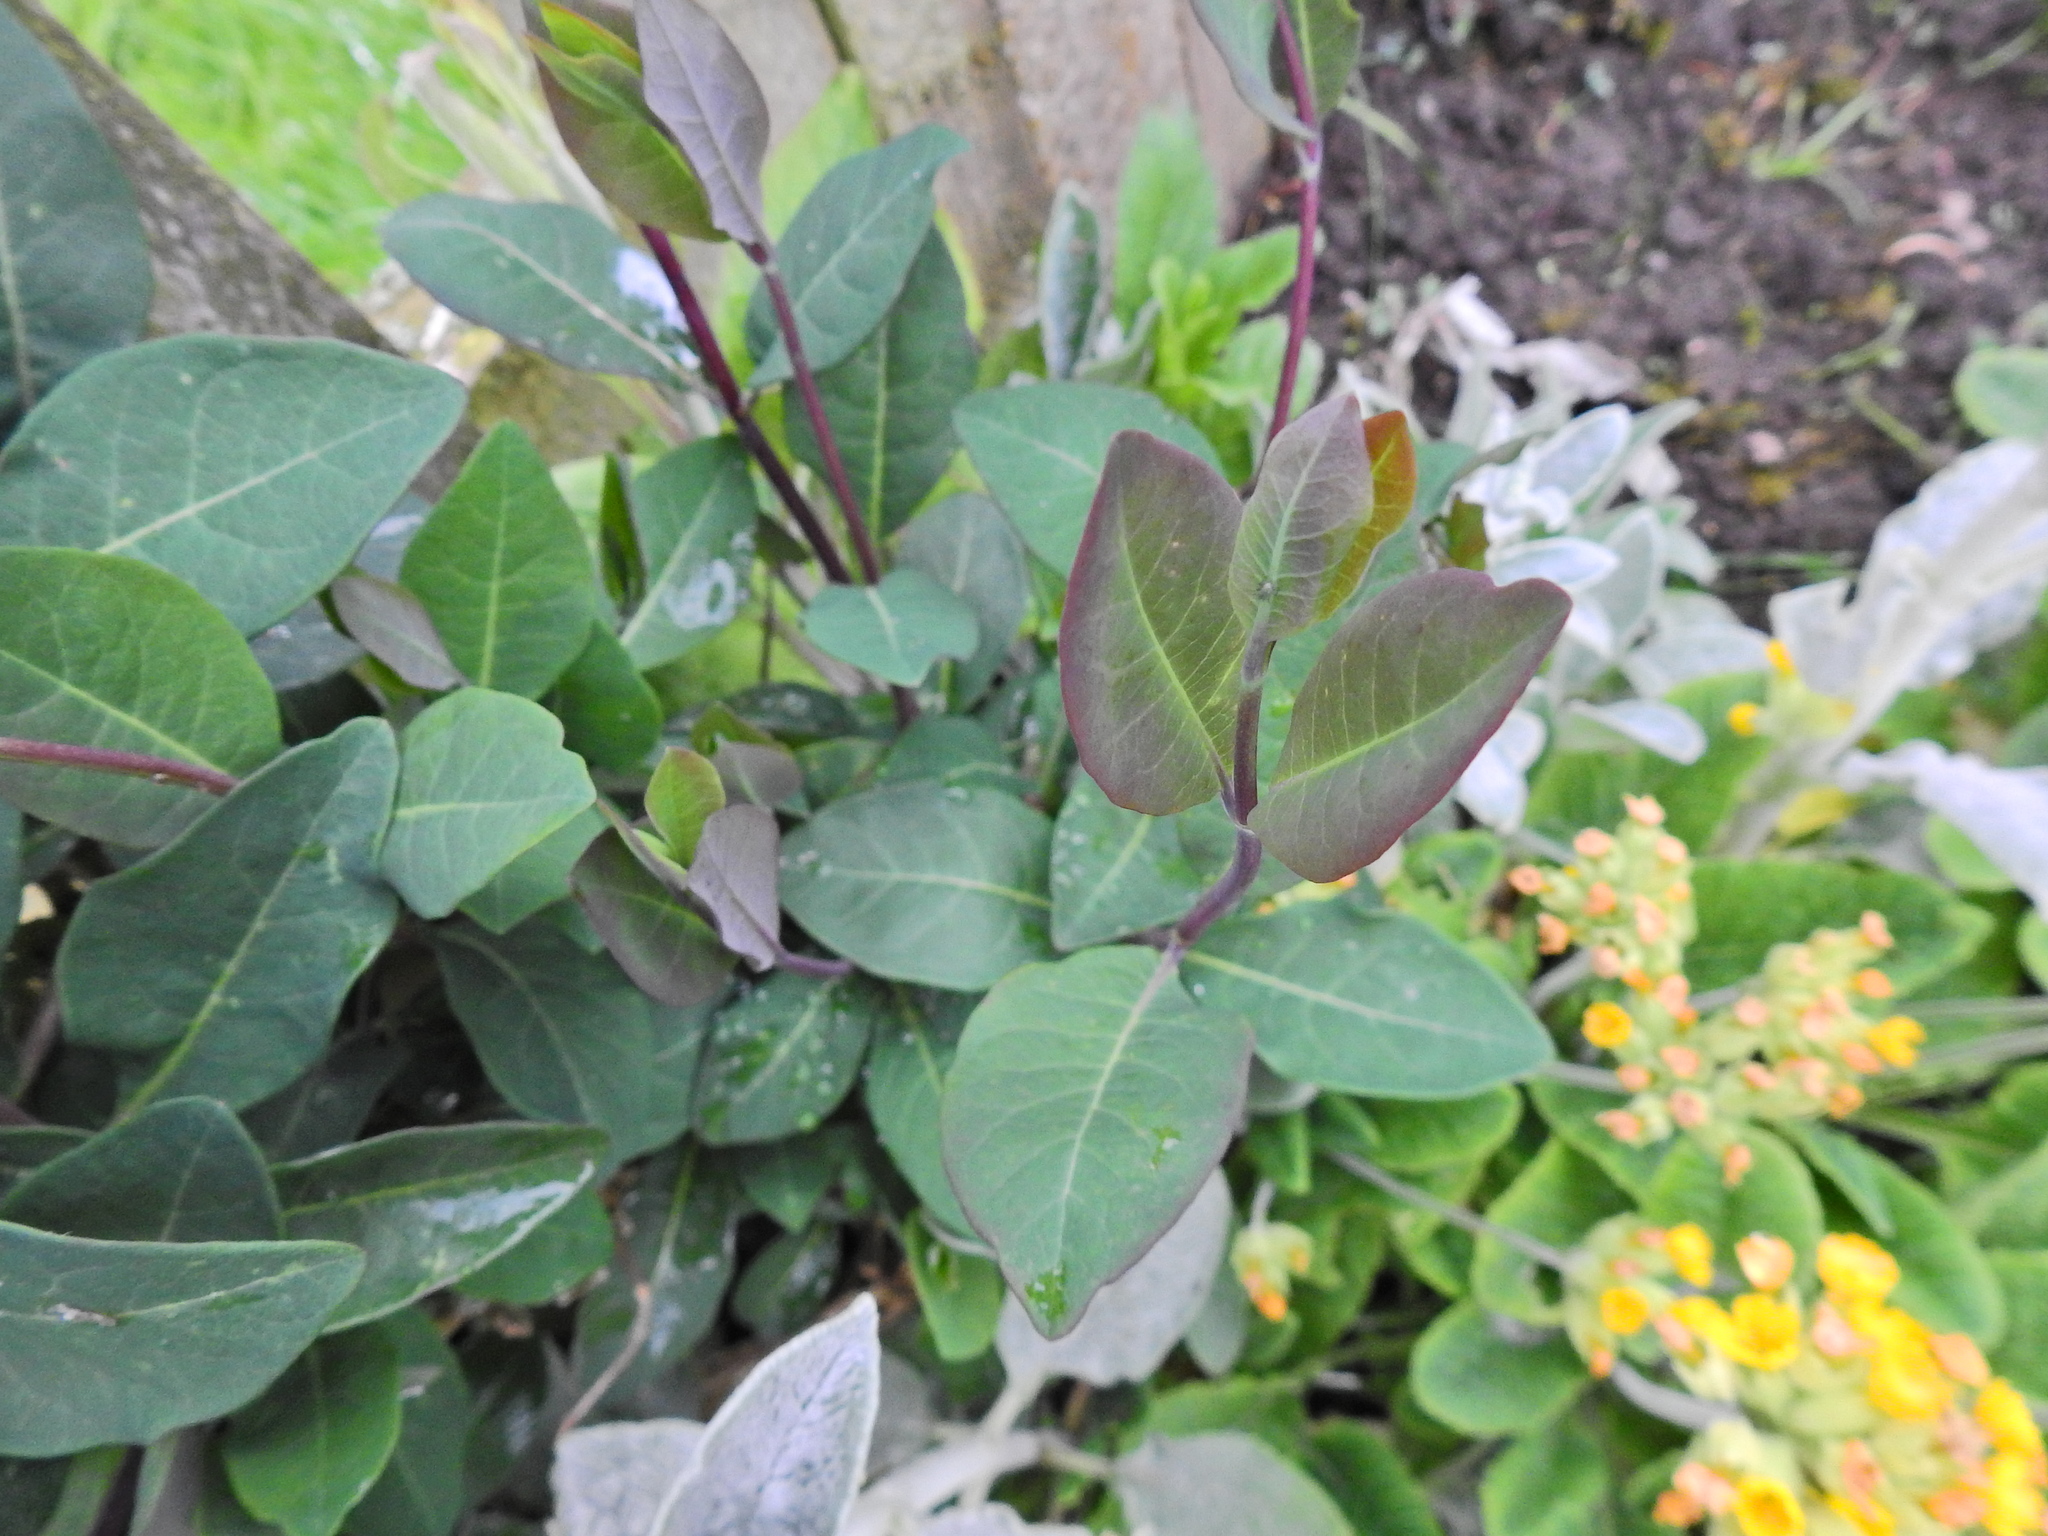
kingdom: Plantae
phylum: Tracheophyta
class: Magnoliopsida
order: Dipsacales
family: Caprifoliaceae
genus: Lonicera
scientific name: Lonicera periclymenum
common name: European honeysuckle
